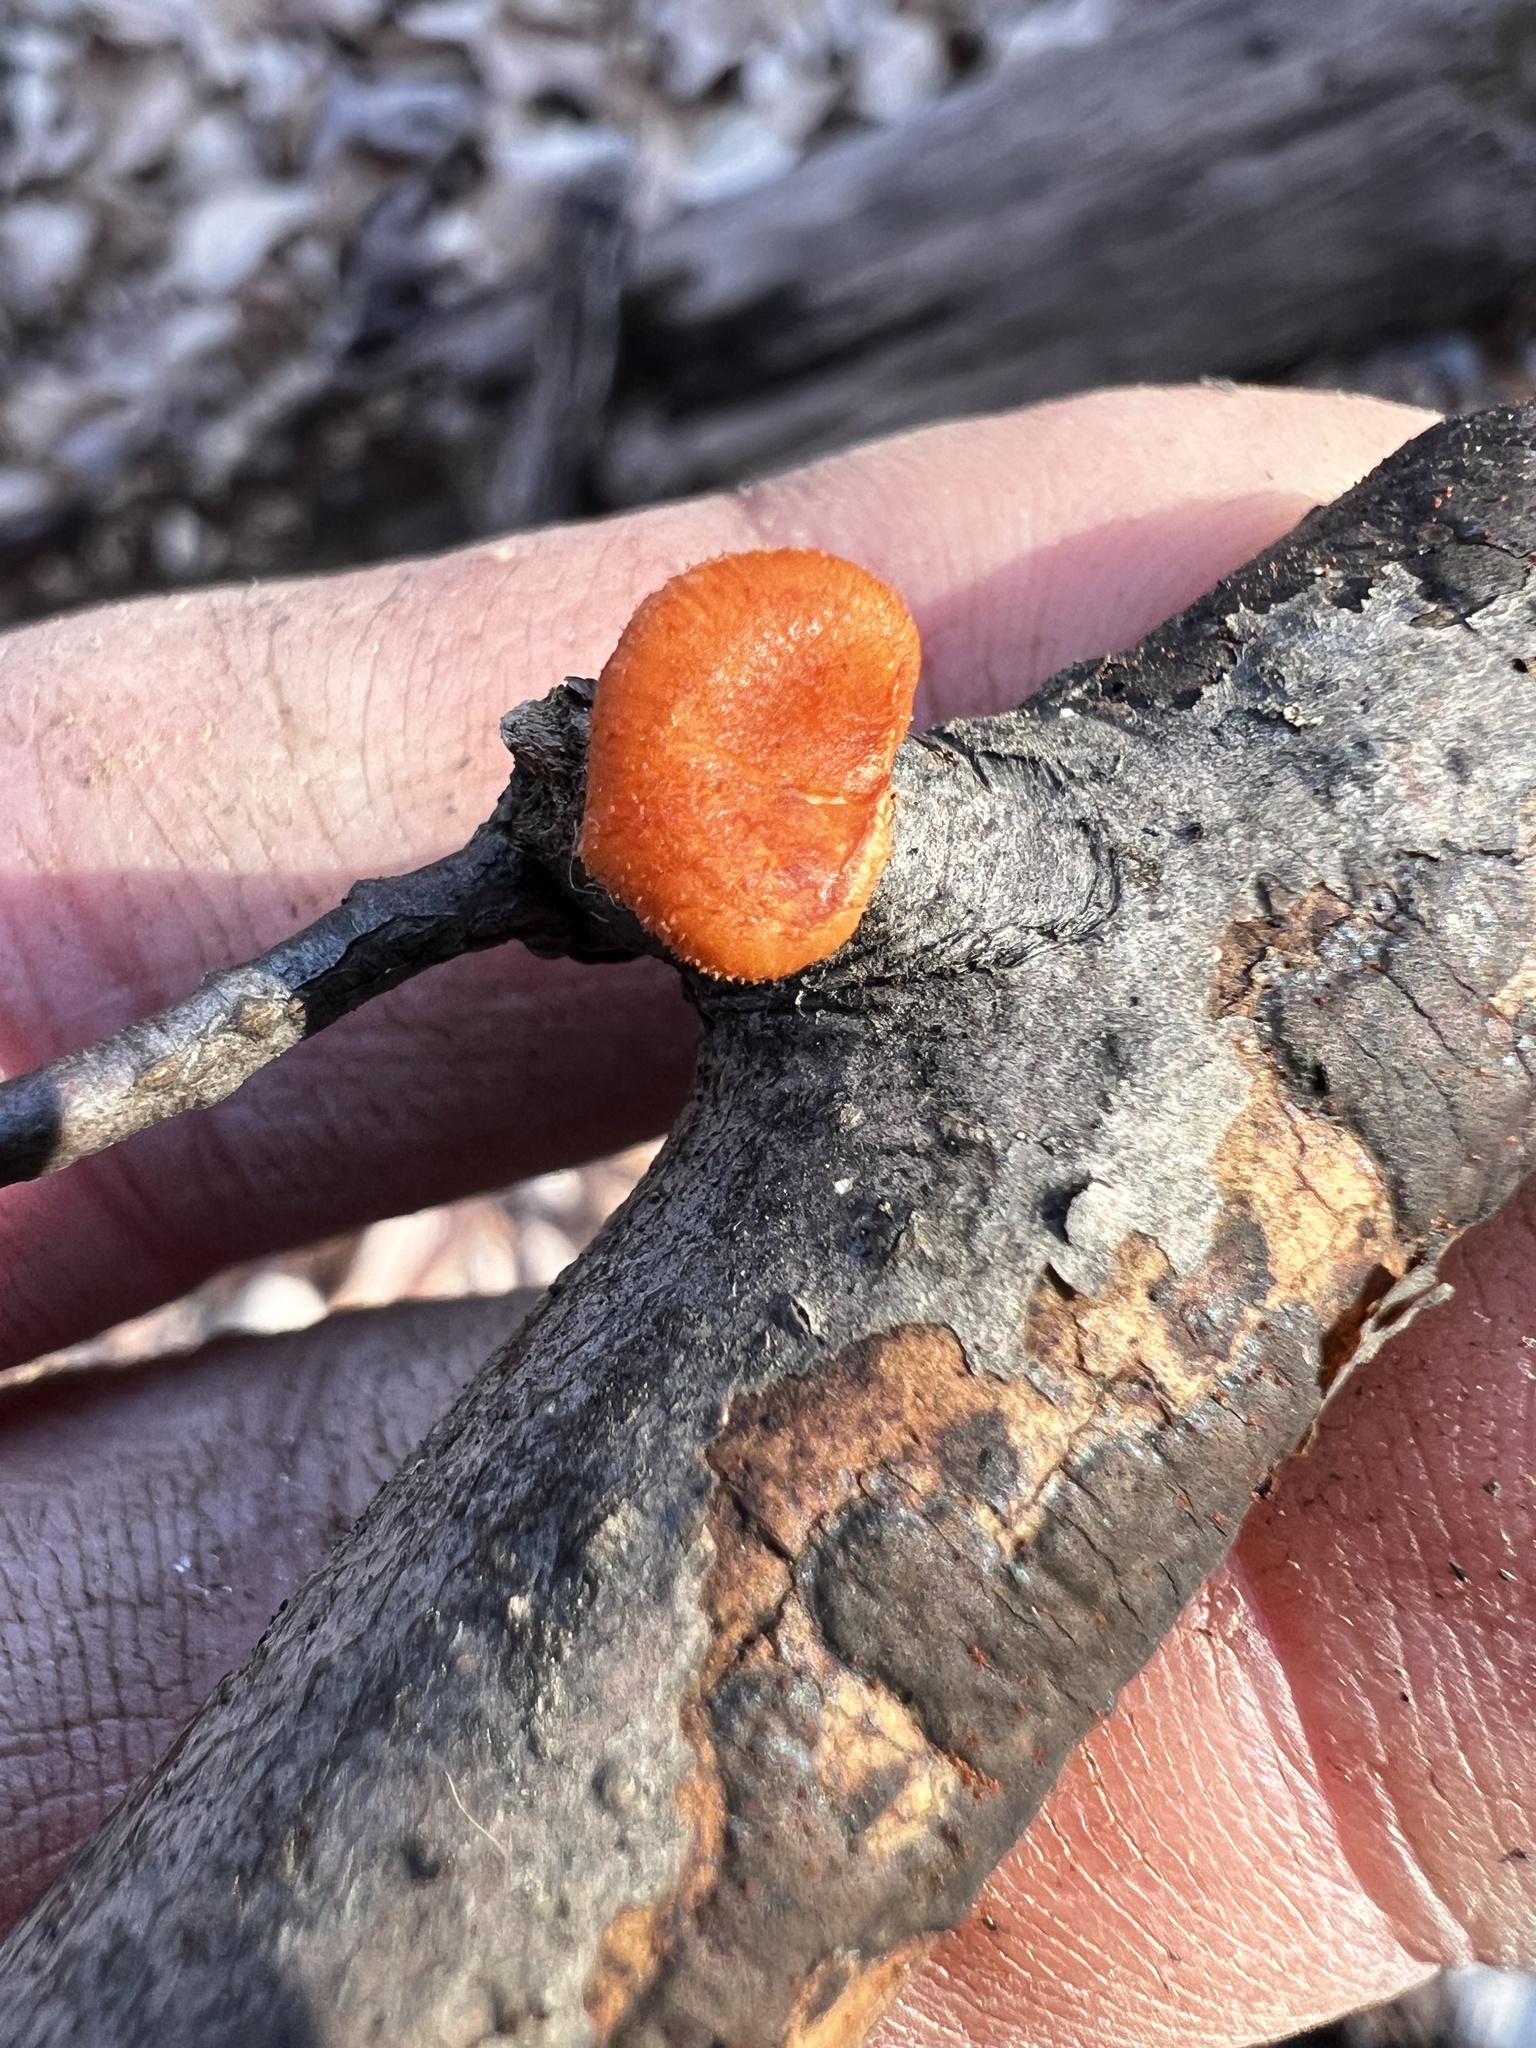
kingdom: Fungi
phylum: Basidiomycota
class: Agaricomycetes
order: Polyporales
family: Polyporaceae
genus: Neofavolus
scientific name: Neofavolus alveolaris
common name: Hexagonal-pored polypore
